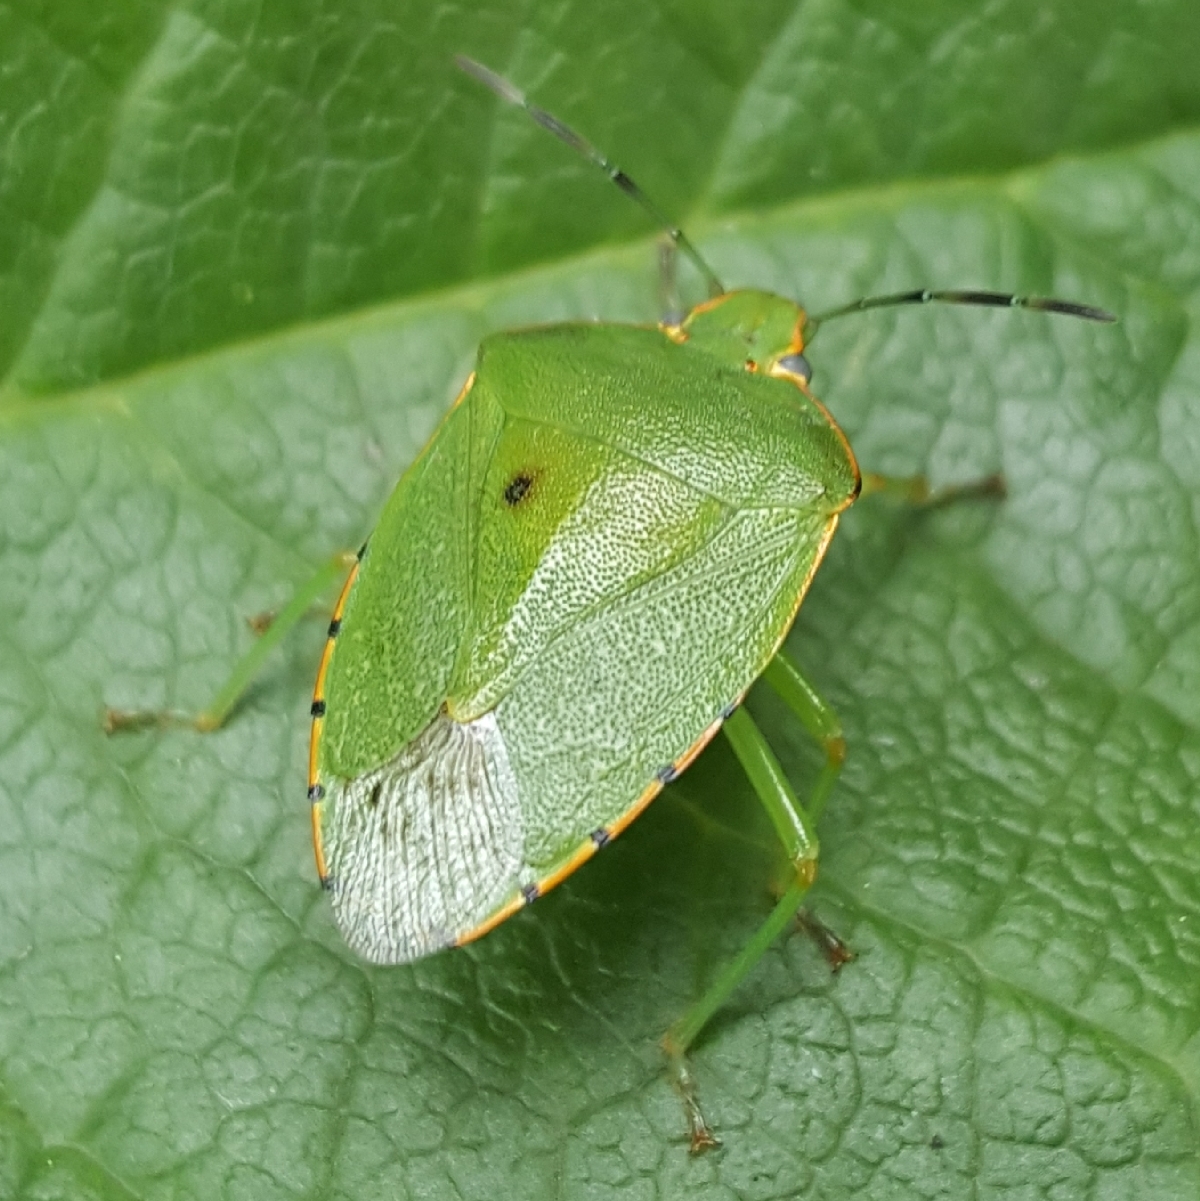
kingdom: Animalia
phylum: Arthropoda
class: Insecta
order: Hemiptera
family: Pentatomidae
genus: Chinavia
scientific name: Chinavia hilaris
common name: Green stink bug
